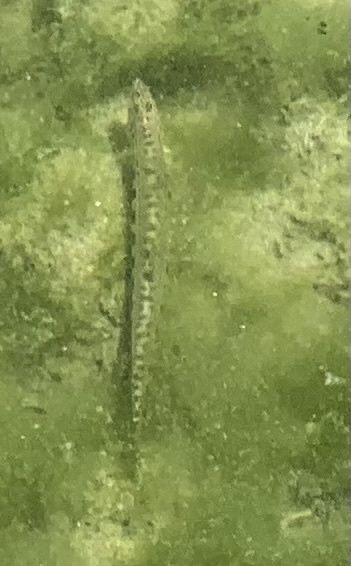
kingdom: Animalia
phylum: Chordata
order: Cypriniformes
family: Cobitidae
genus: Cobitis
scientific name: Cobitis bilineata
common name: Italian spined loach
